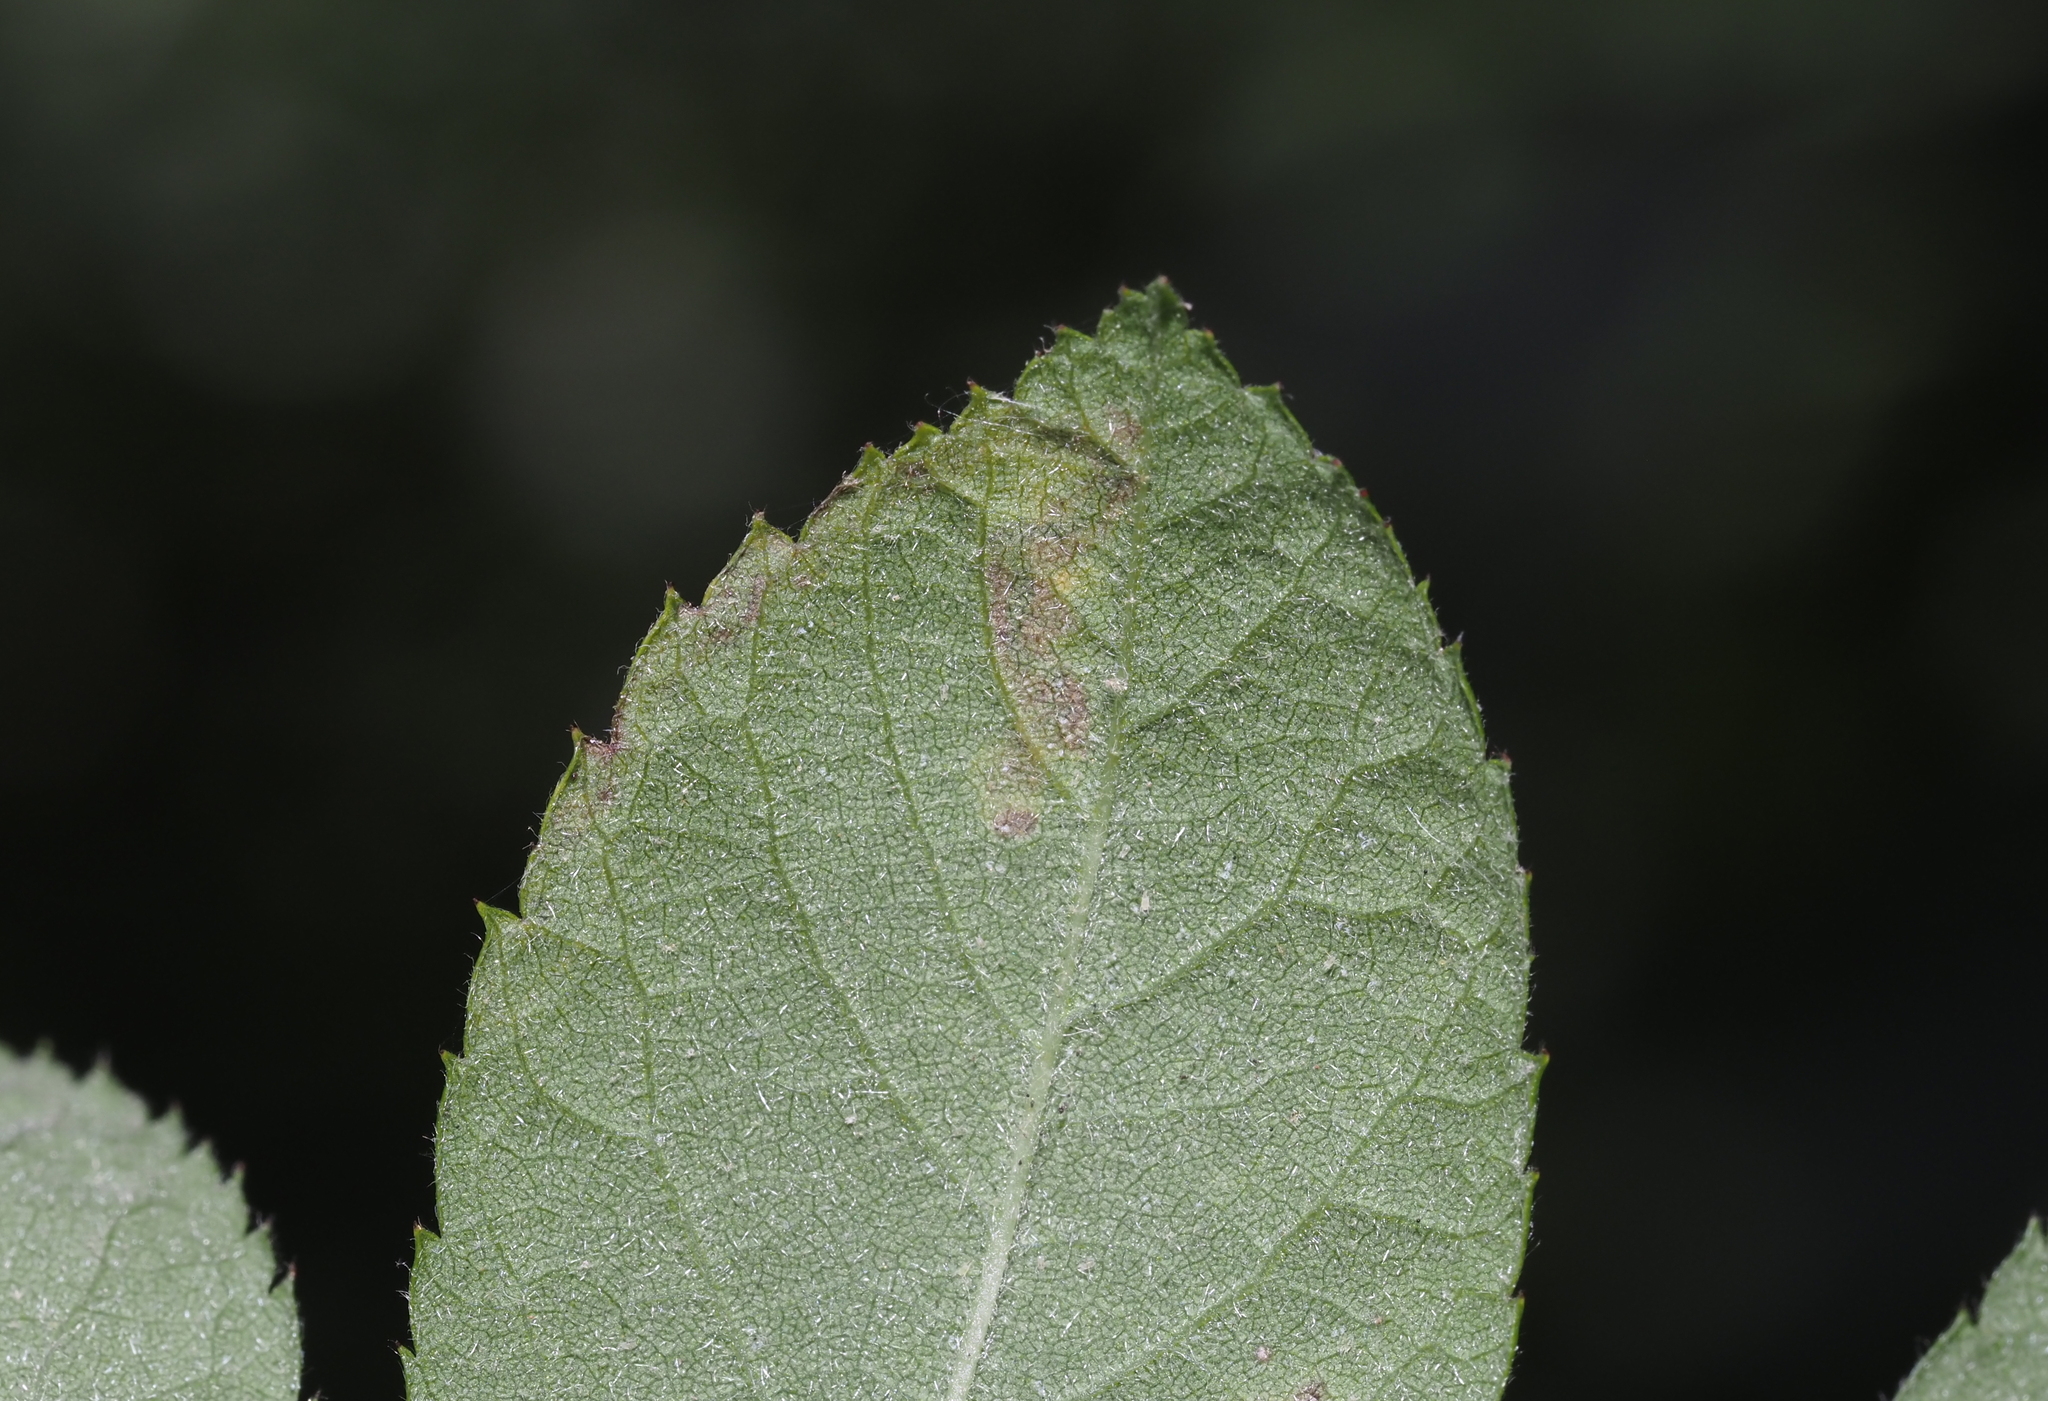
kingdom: Animalia
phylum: Arthropoda
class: Insecta
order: Lepidoptera
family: Nepticulidae
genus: Stigmella
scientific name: Stigmella rosaefoliella
